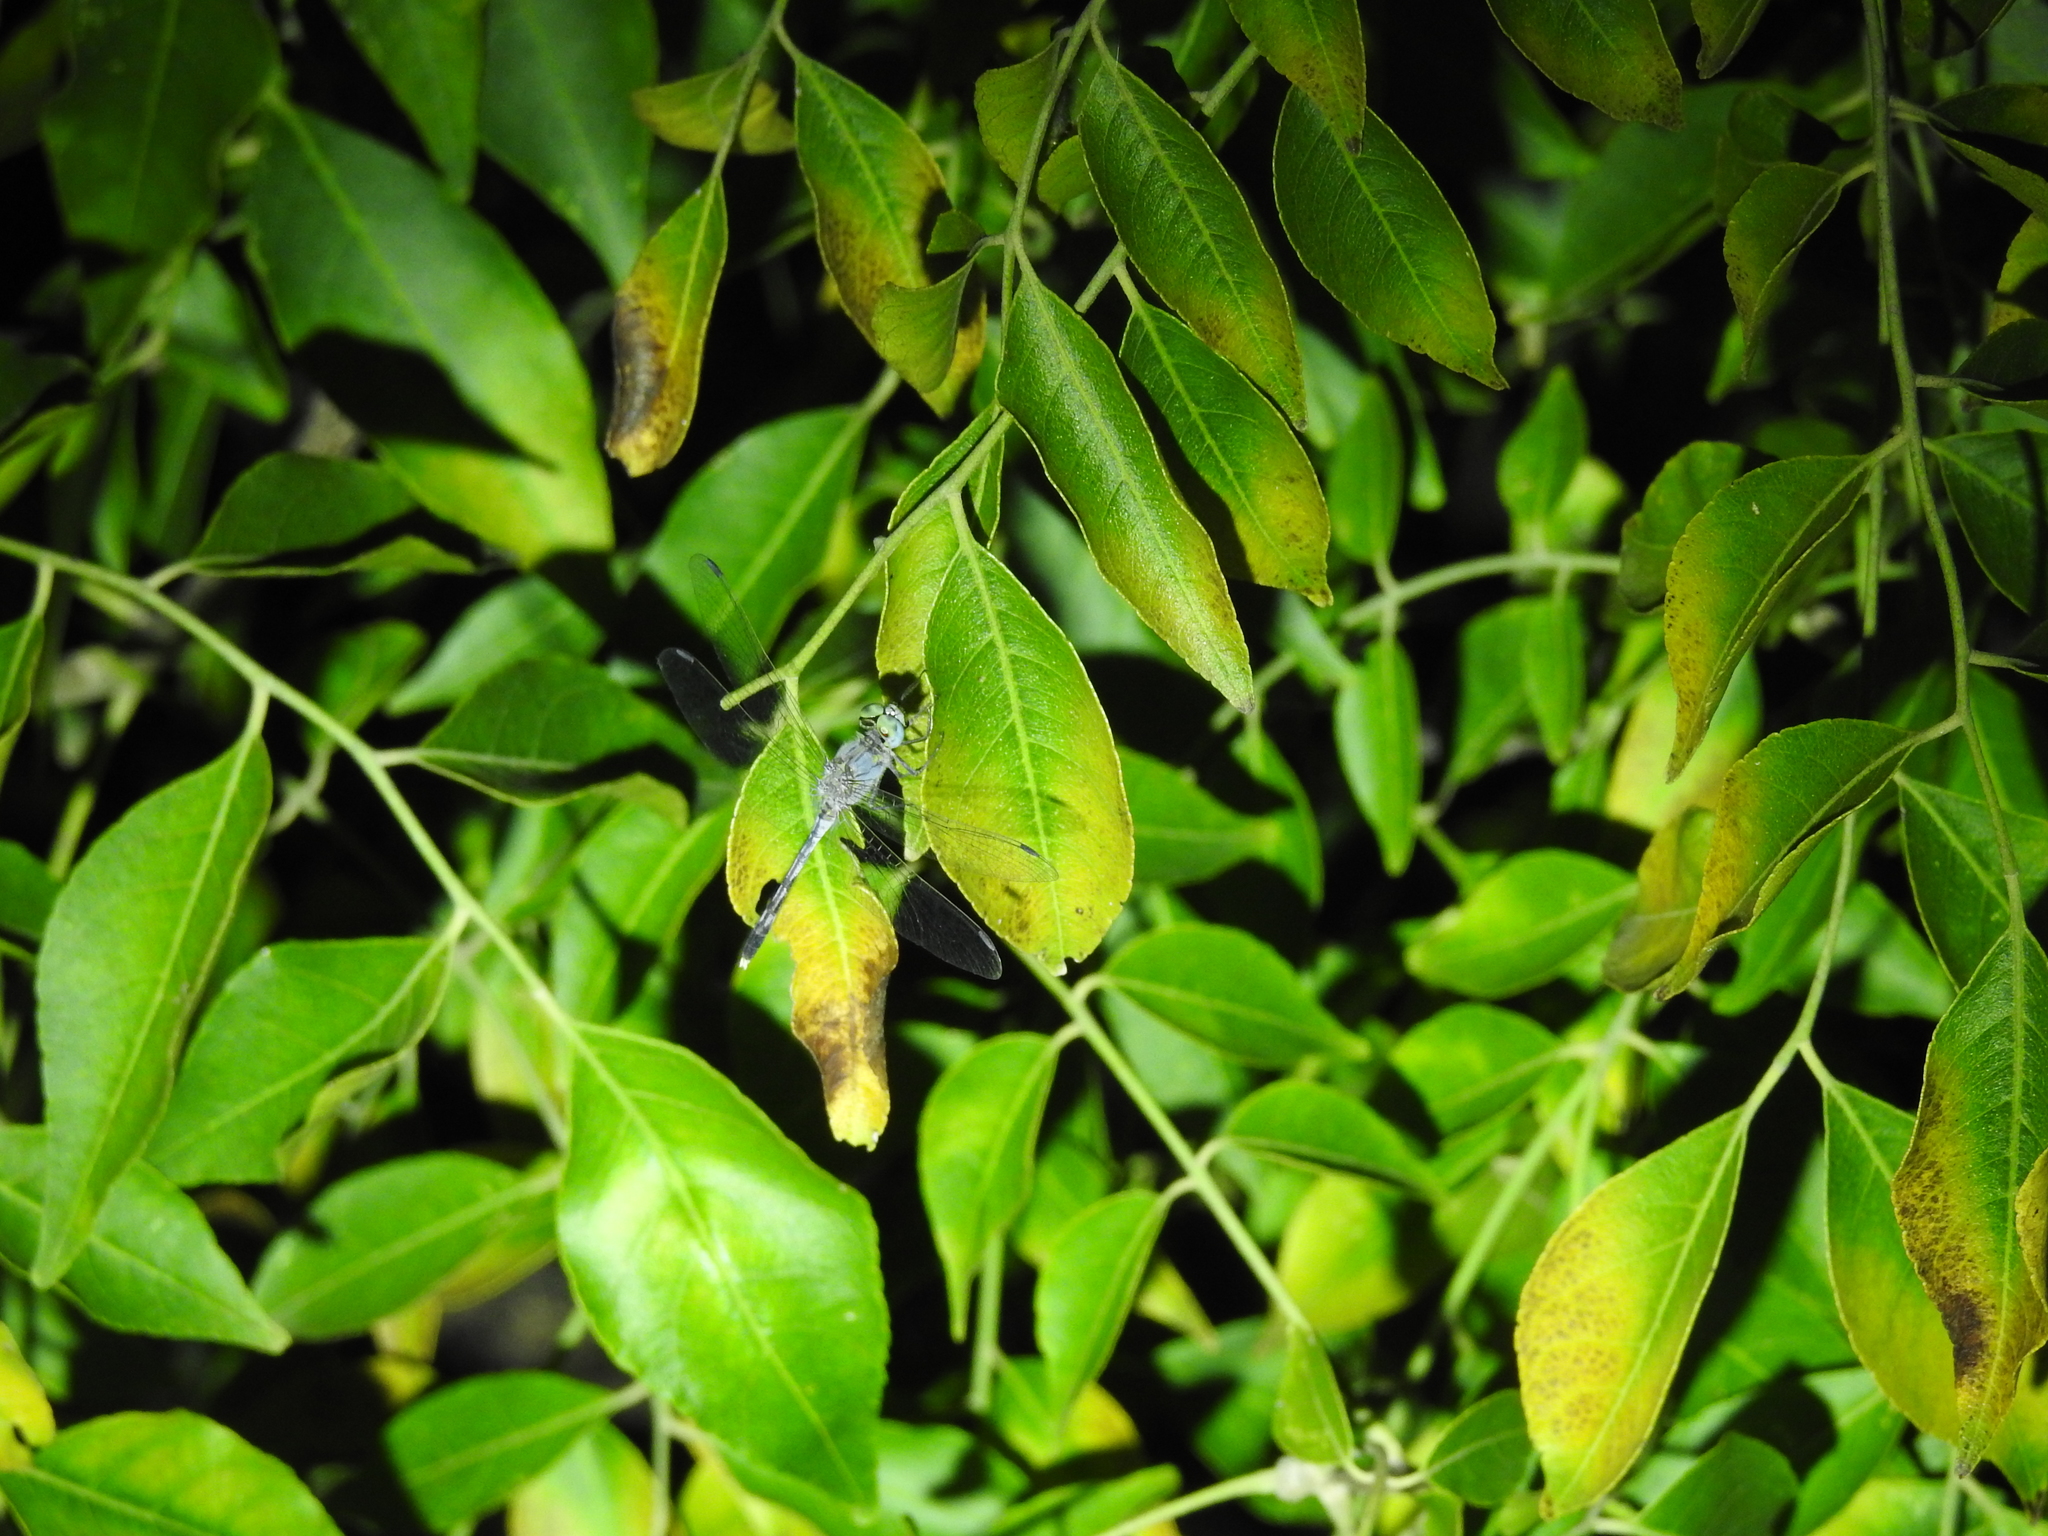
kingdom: Animalia
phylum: Arthropoda
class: Insecta
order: Odonata
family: Libellulidae
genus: Diplacodes
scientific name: Diplacodes trivialis
